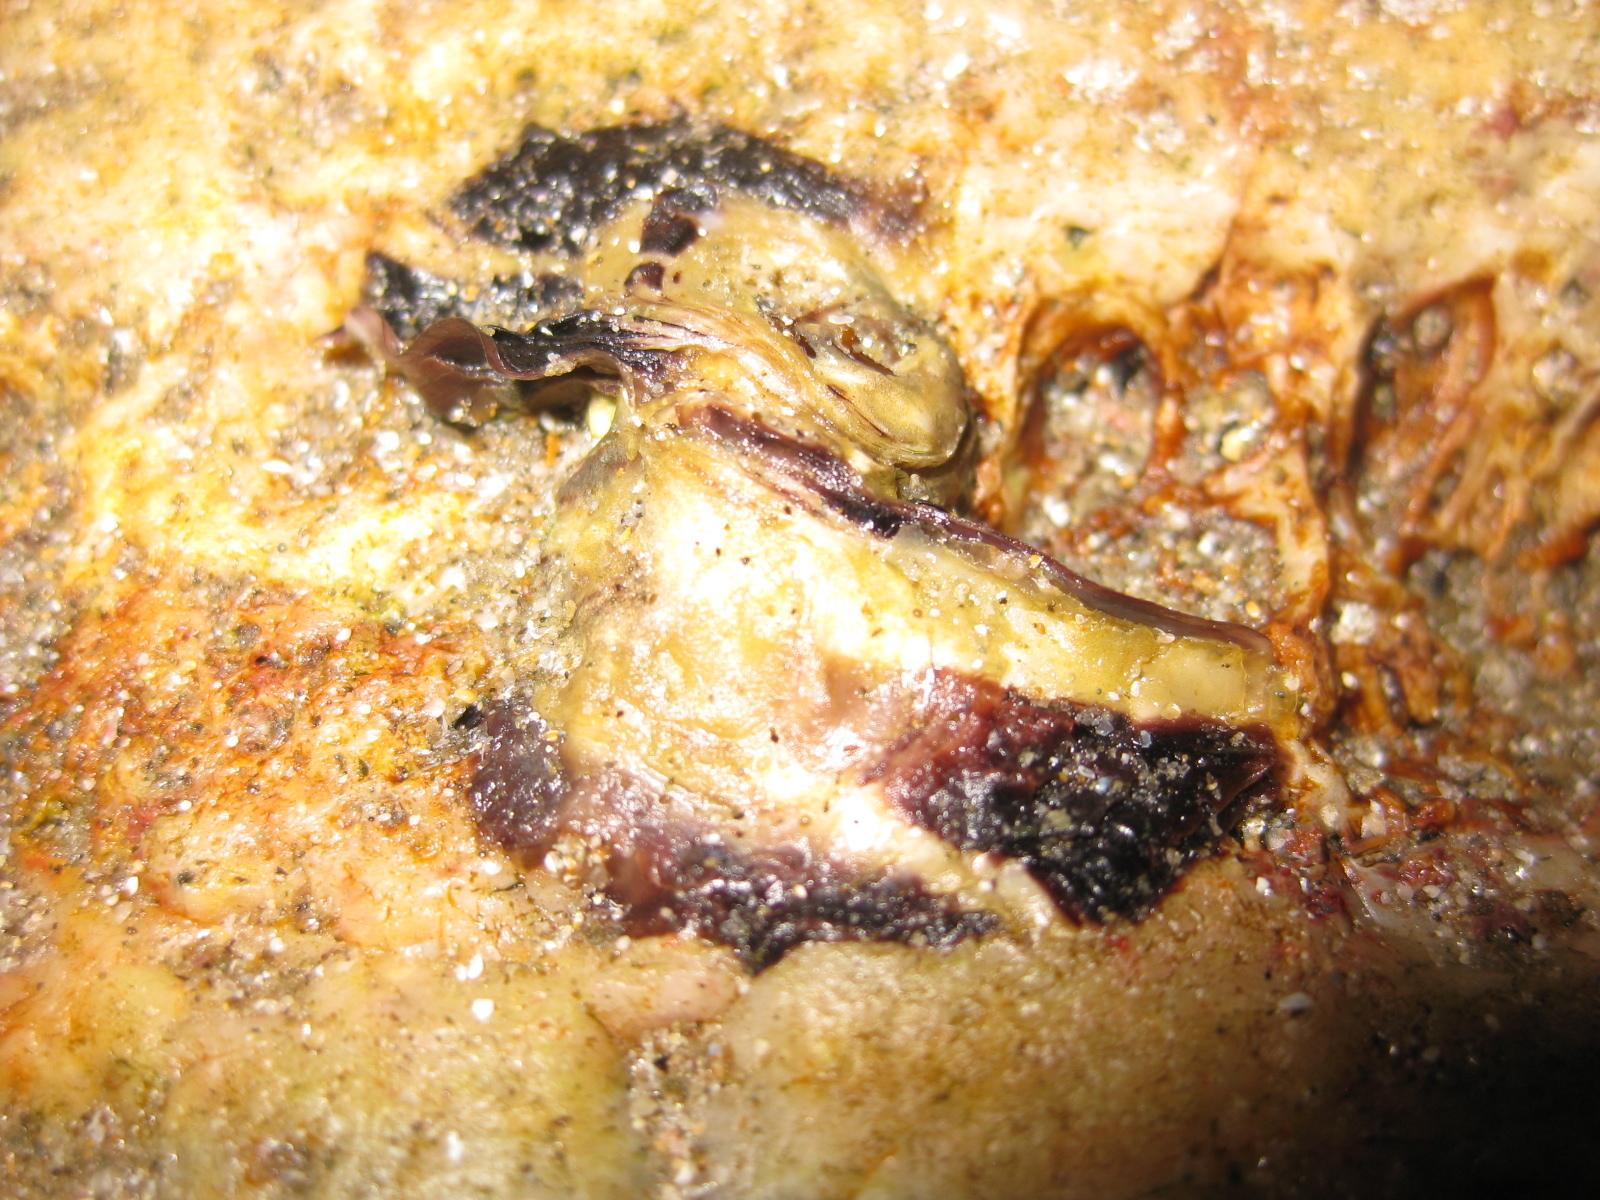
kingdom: Animalia
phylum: Mollusca
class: Bivalvia
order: Ostreida
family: Ostreidae
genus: Magallana
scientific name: Magallana gigas
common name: Pacific oyster
